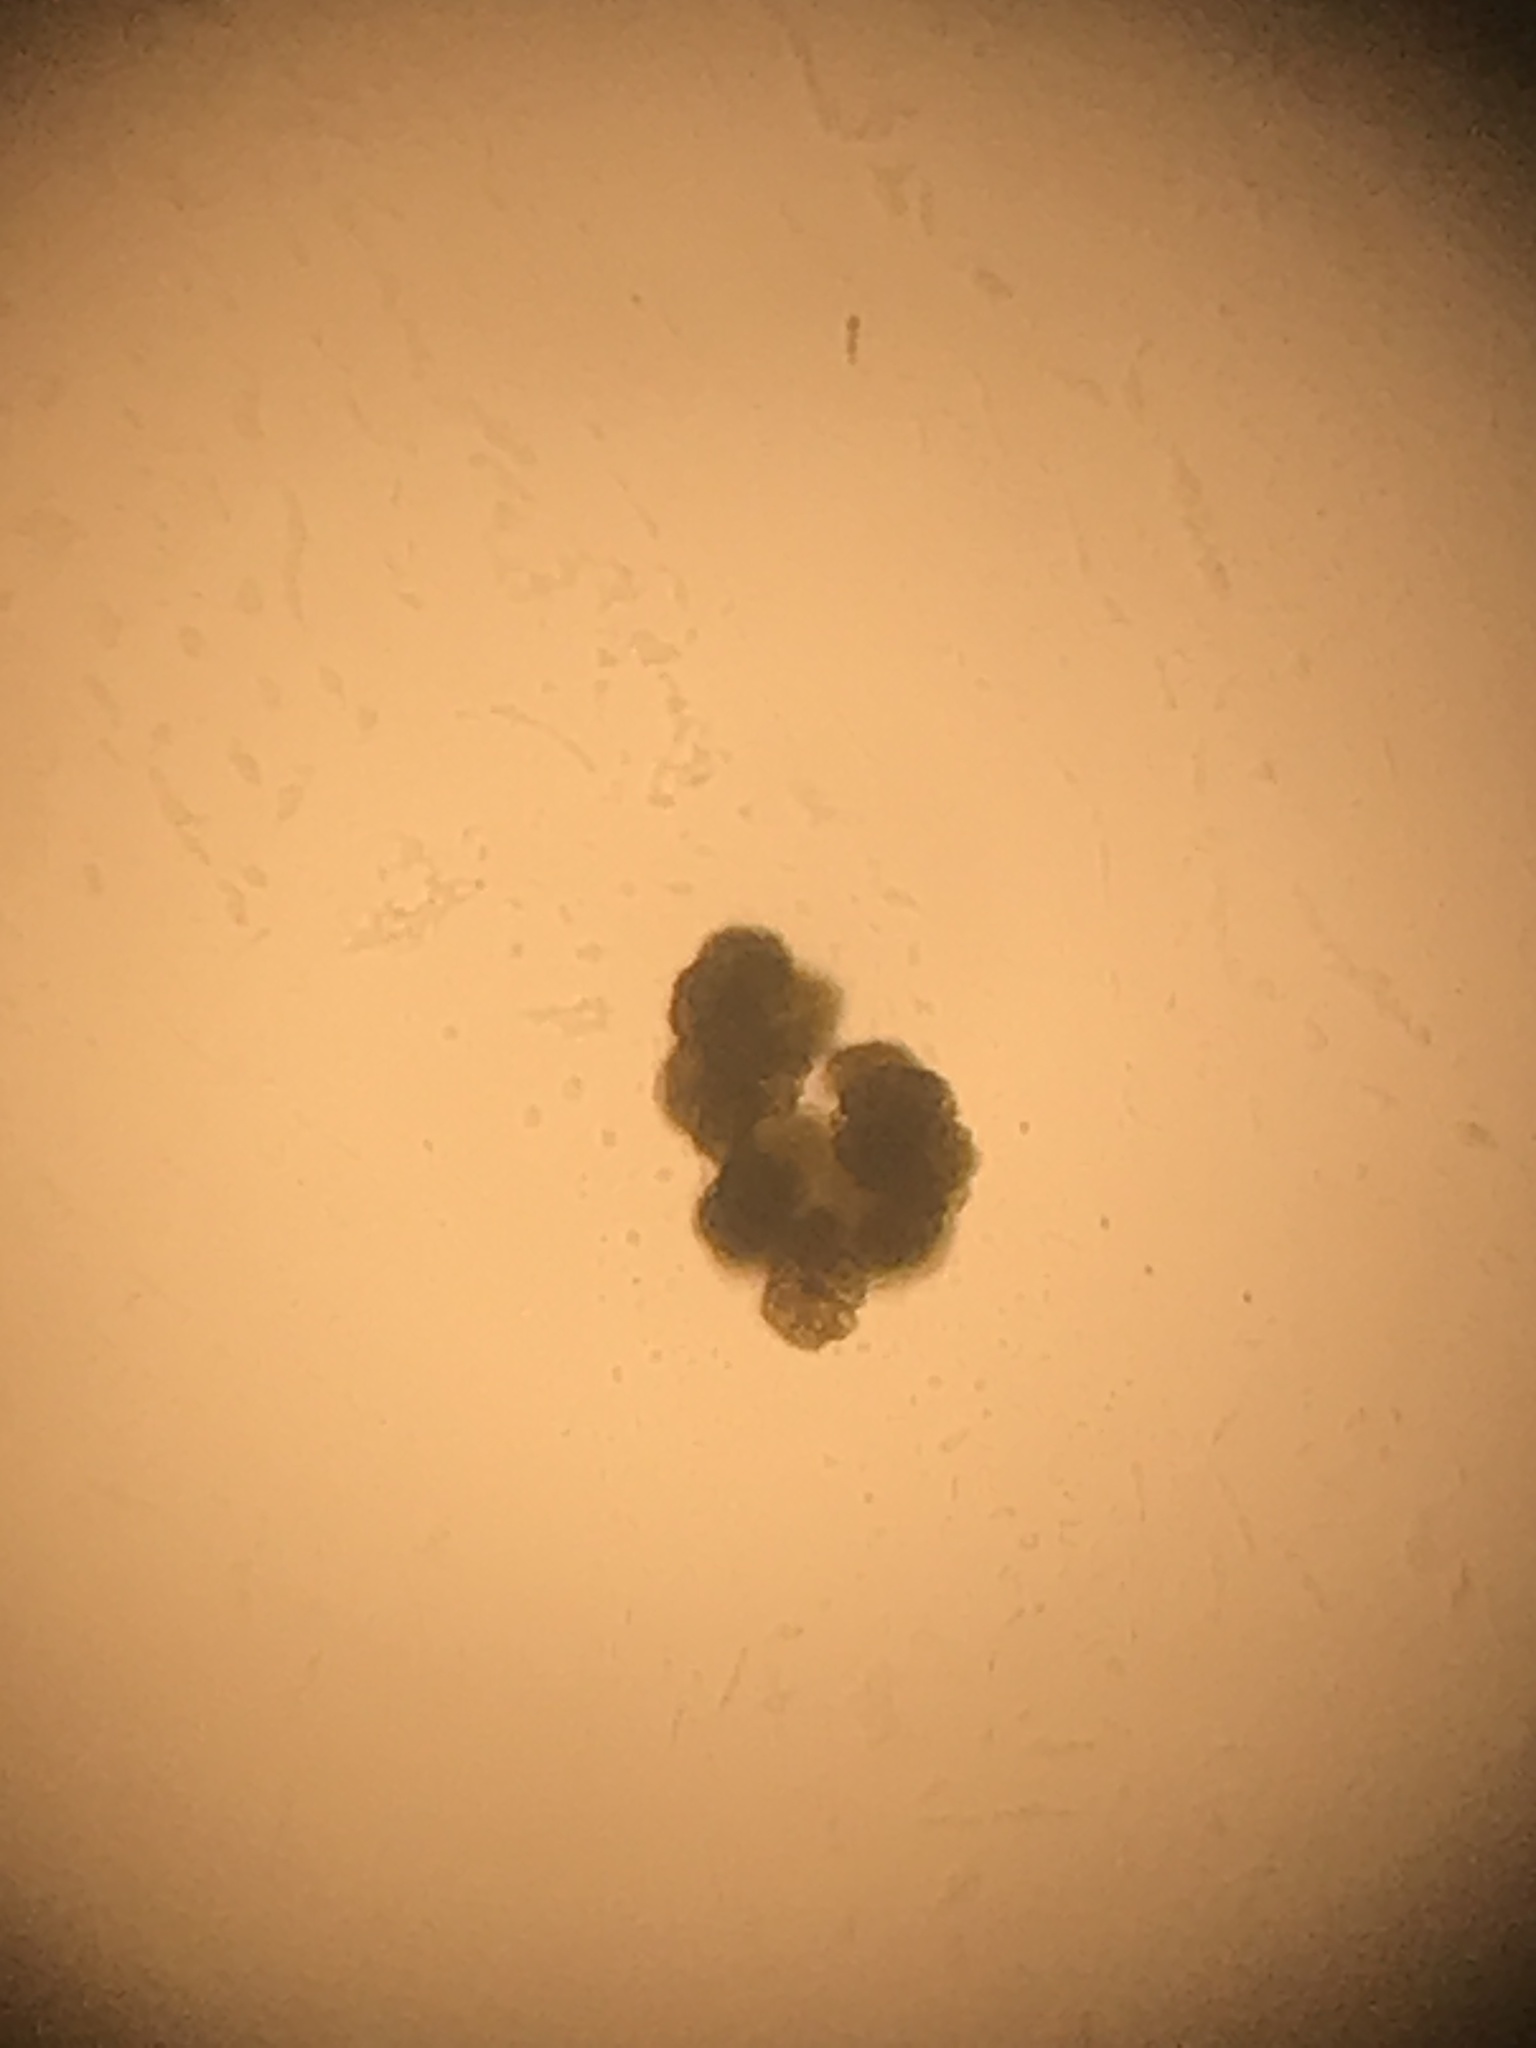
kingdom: Plantae
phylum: Chlorophyta
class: Trebouxiophyceae
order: Trebouxiales
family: Botryococcaceae
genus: Botryococcus
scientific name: Botryococcus braunii
